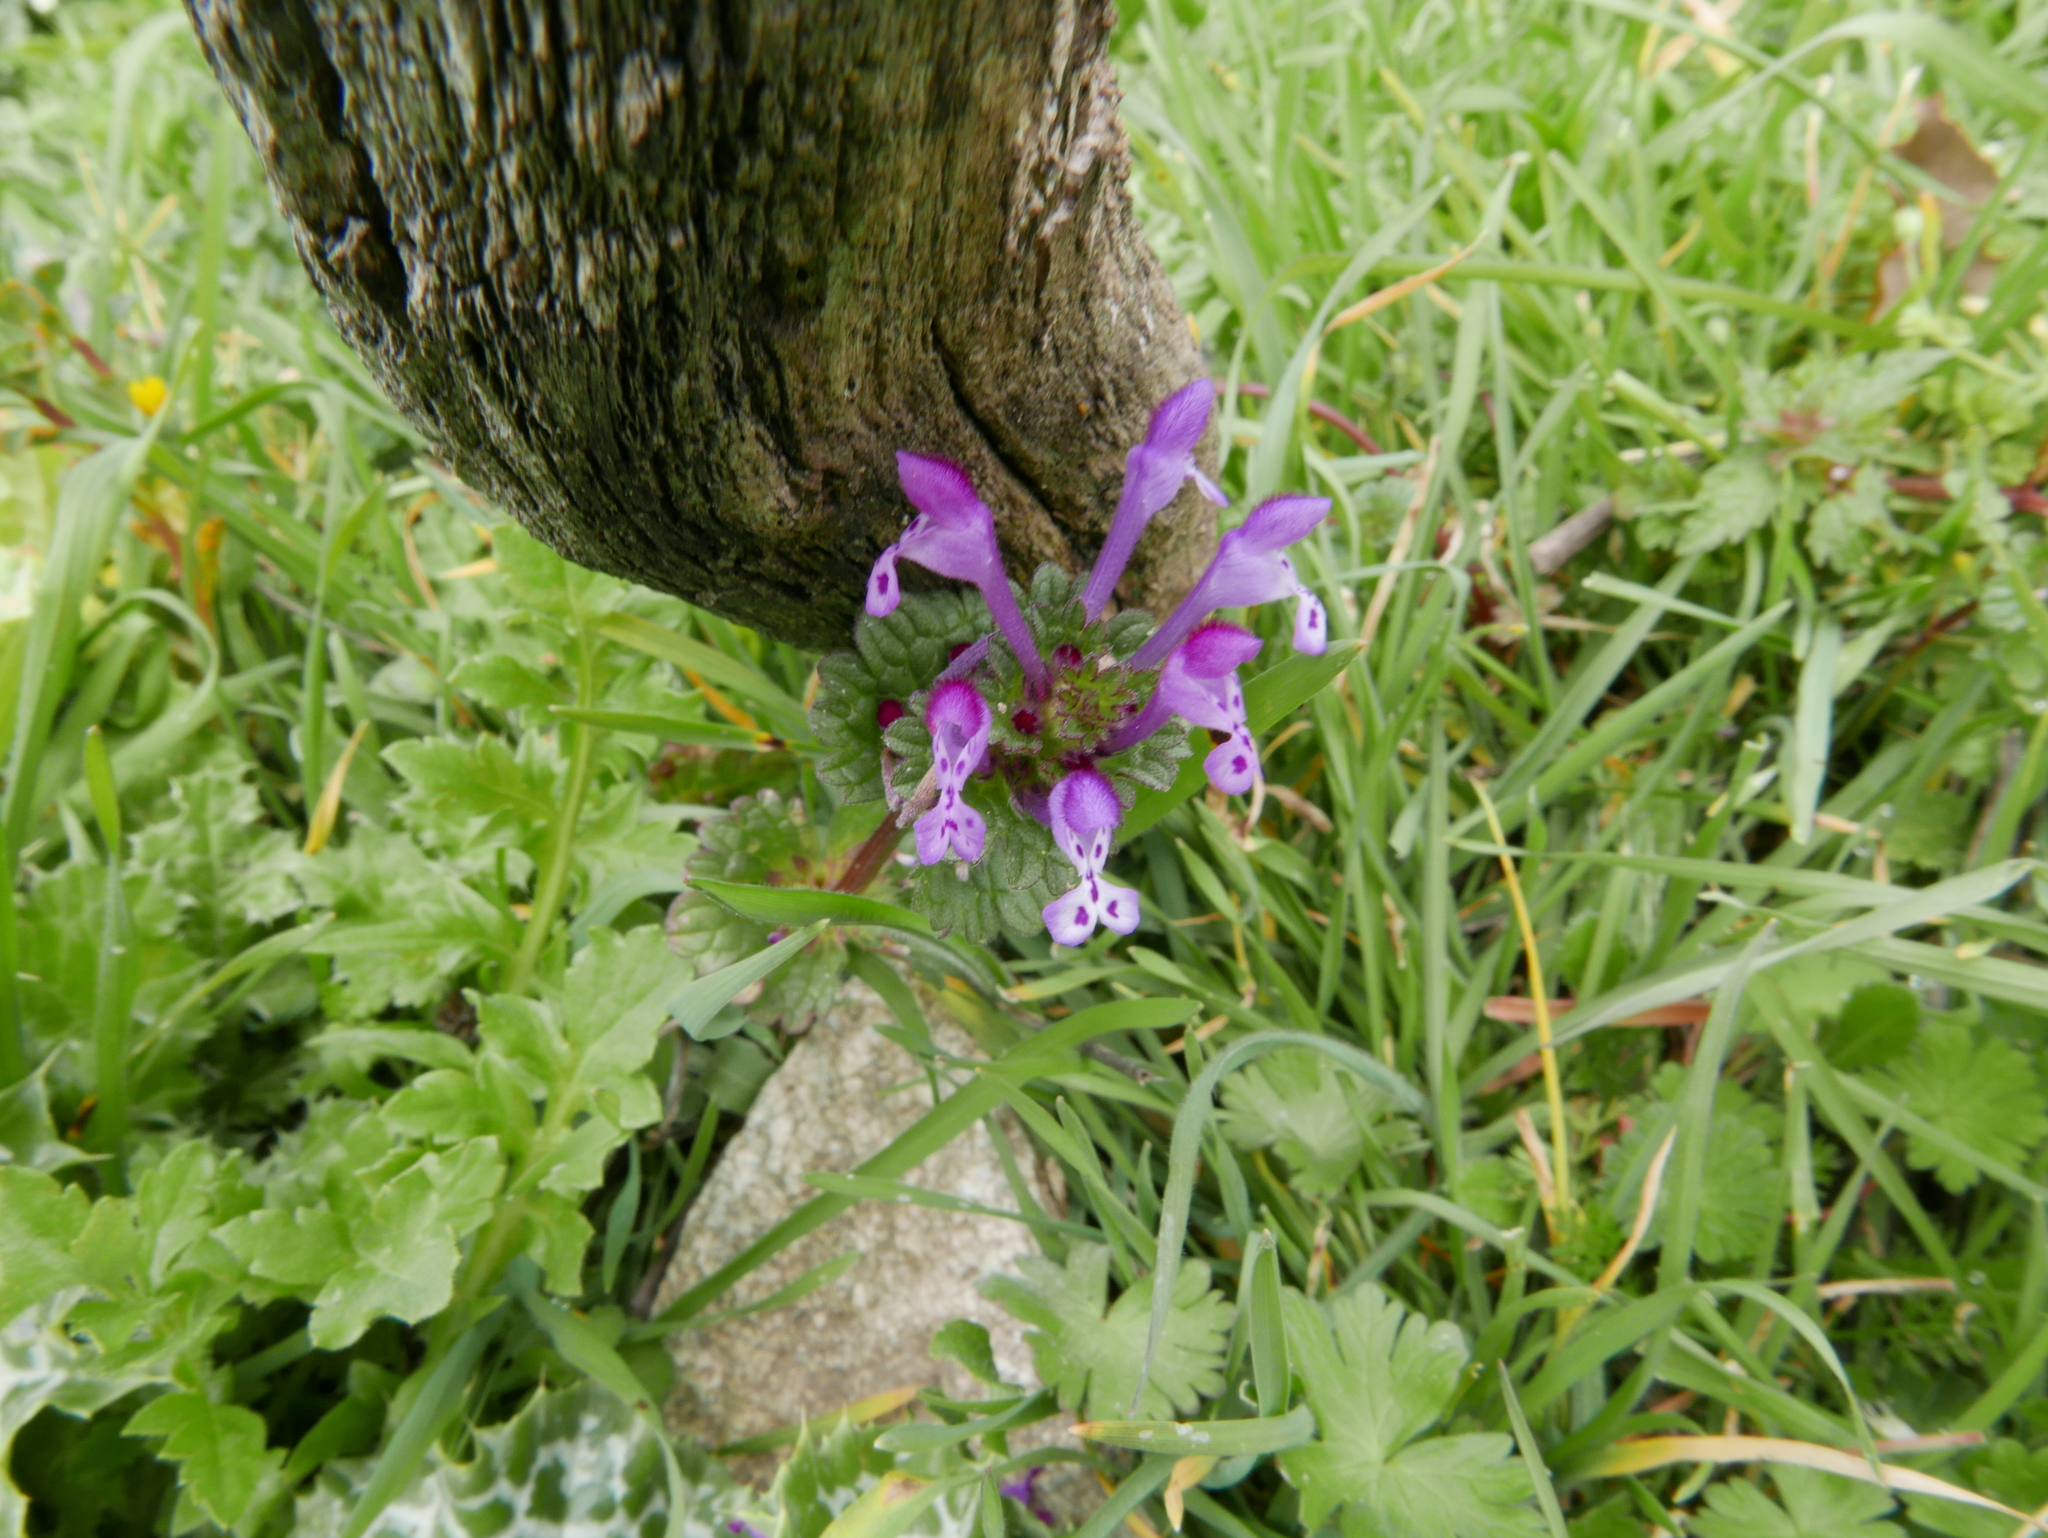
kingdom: Plantae
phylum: Tracheophyta
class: Magnoliopsida
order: Lamiales
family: Lamiaceae
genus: Lamium
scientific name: Lamium amplexicaule
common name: Henbit dead-nettle
